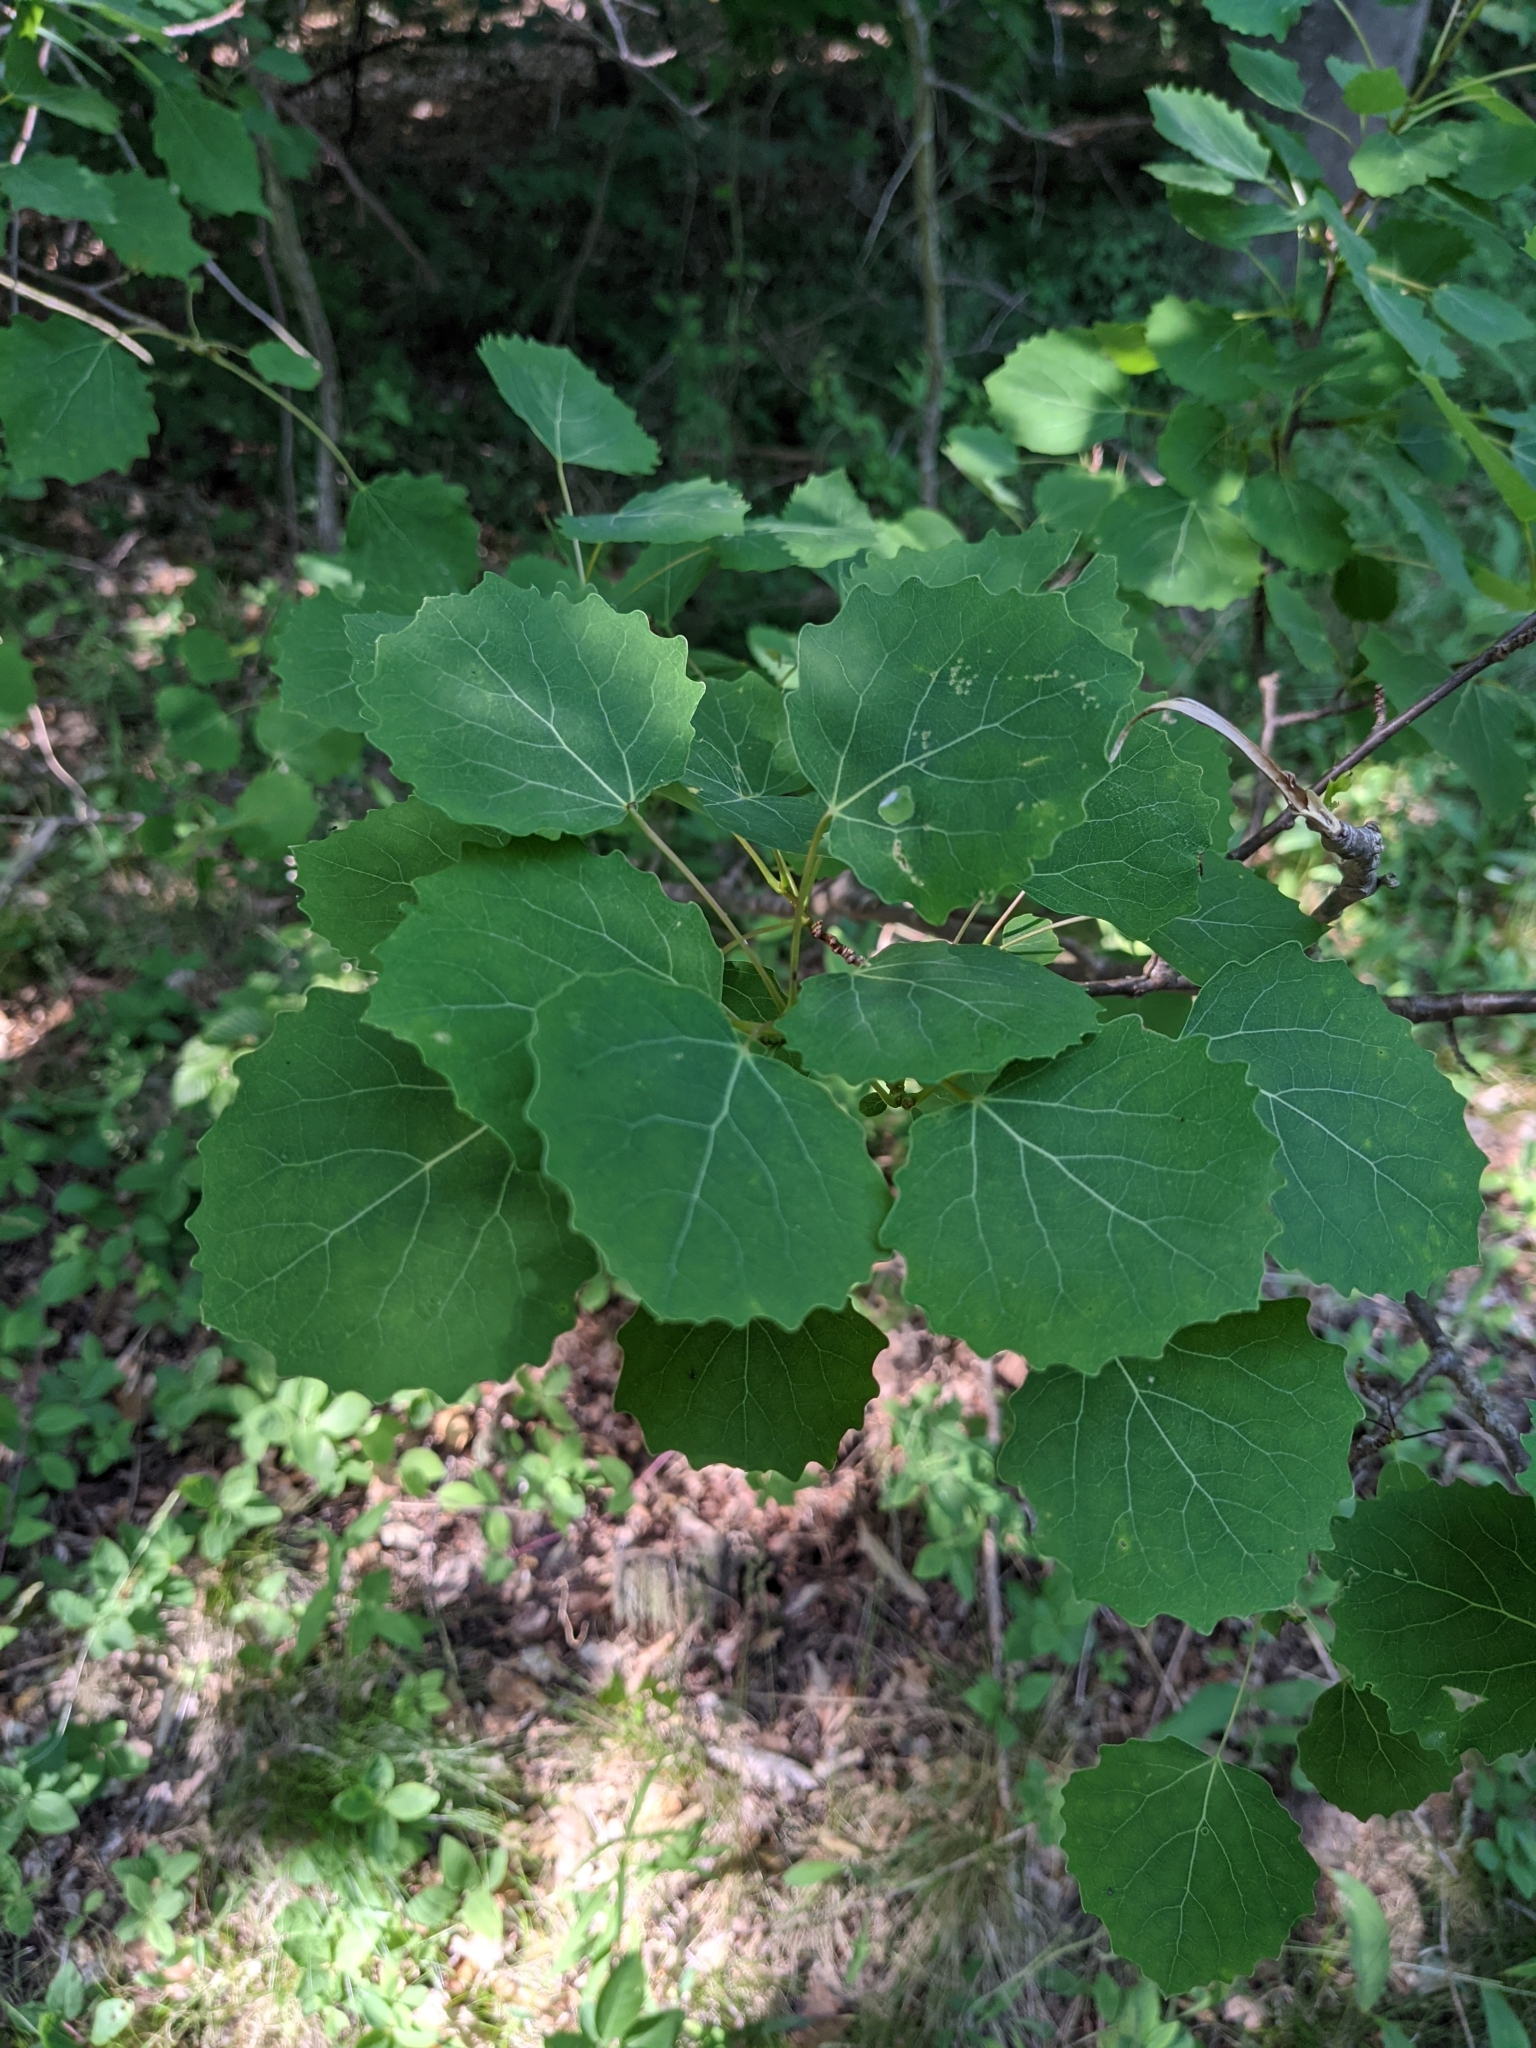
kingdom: Plantae
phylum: Tracheophyta
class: Magnoliopsida
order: Malpighiales
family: Salicaceae
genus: Populus
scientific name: Populus tremula
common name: European aspen
